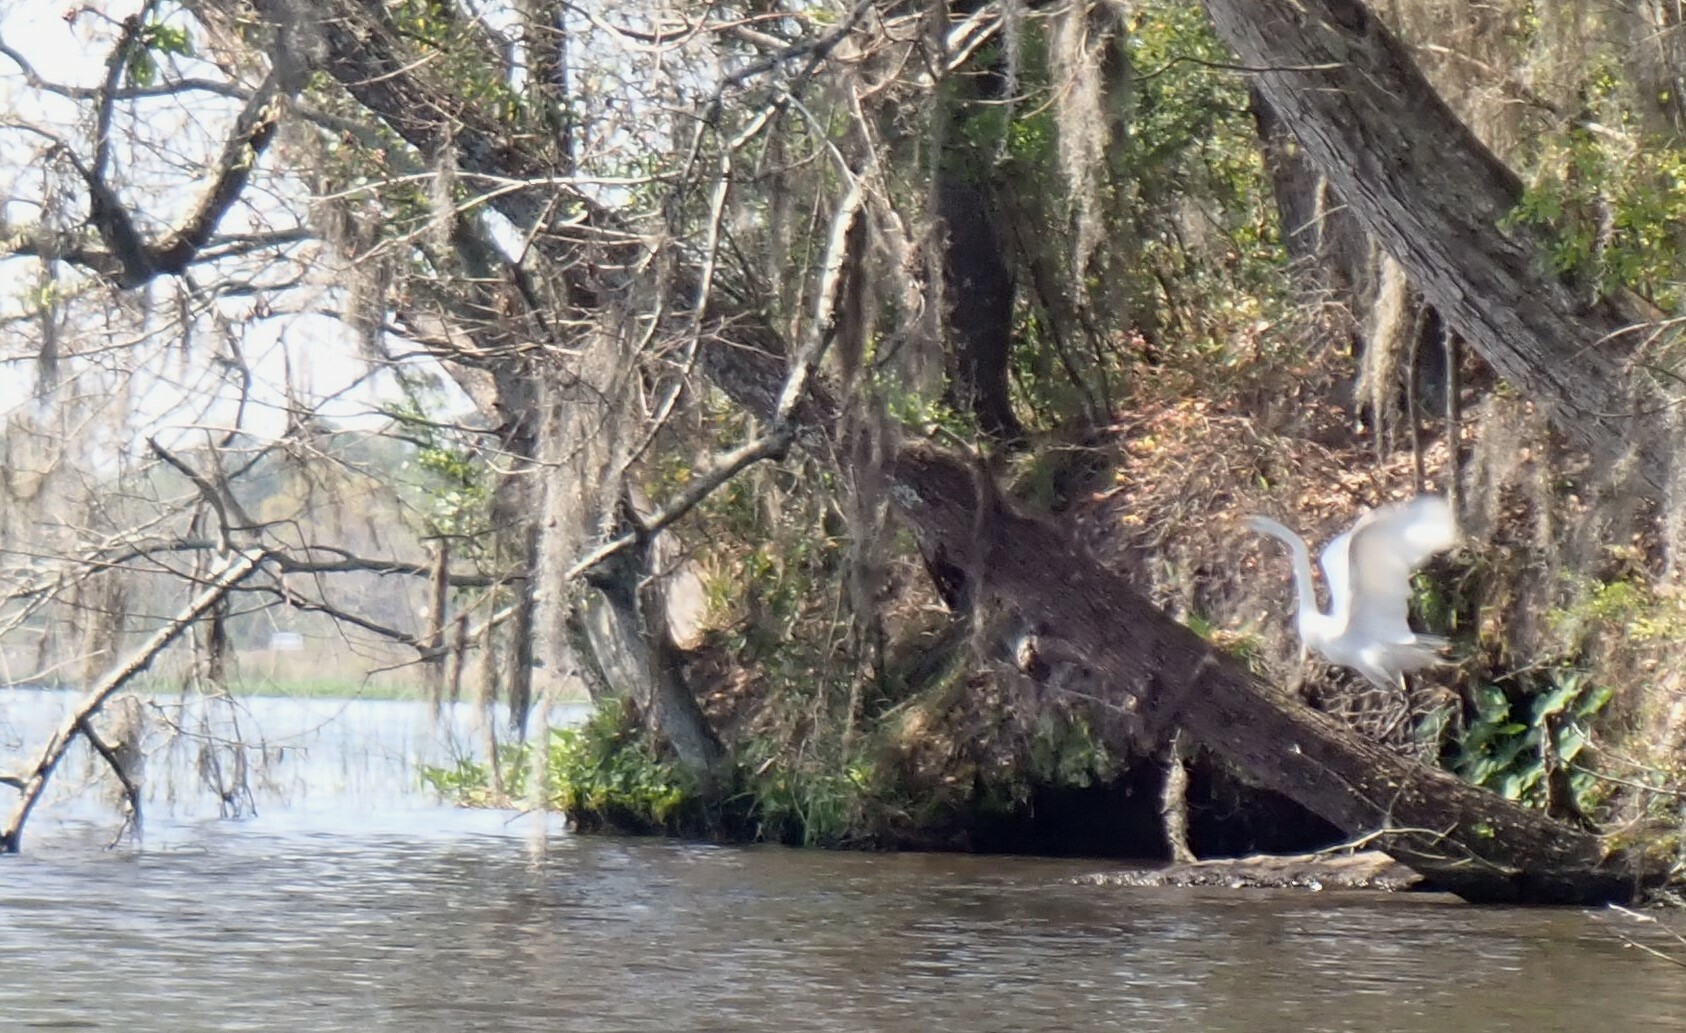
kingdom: Animalia
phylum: Chordata
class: Aves
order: Pelecaniformes
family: Ardeidae
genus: Ardea
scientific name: Ardea alba
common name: Great egret
